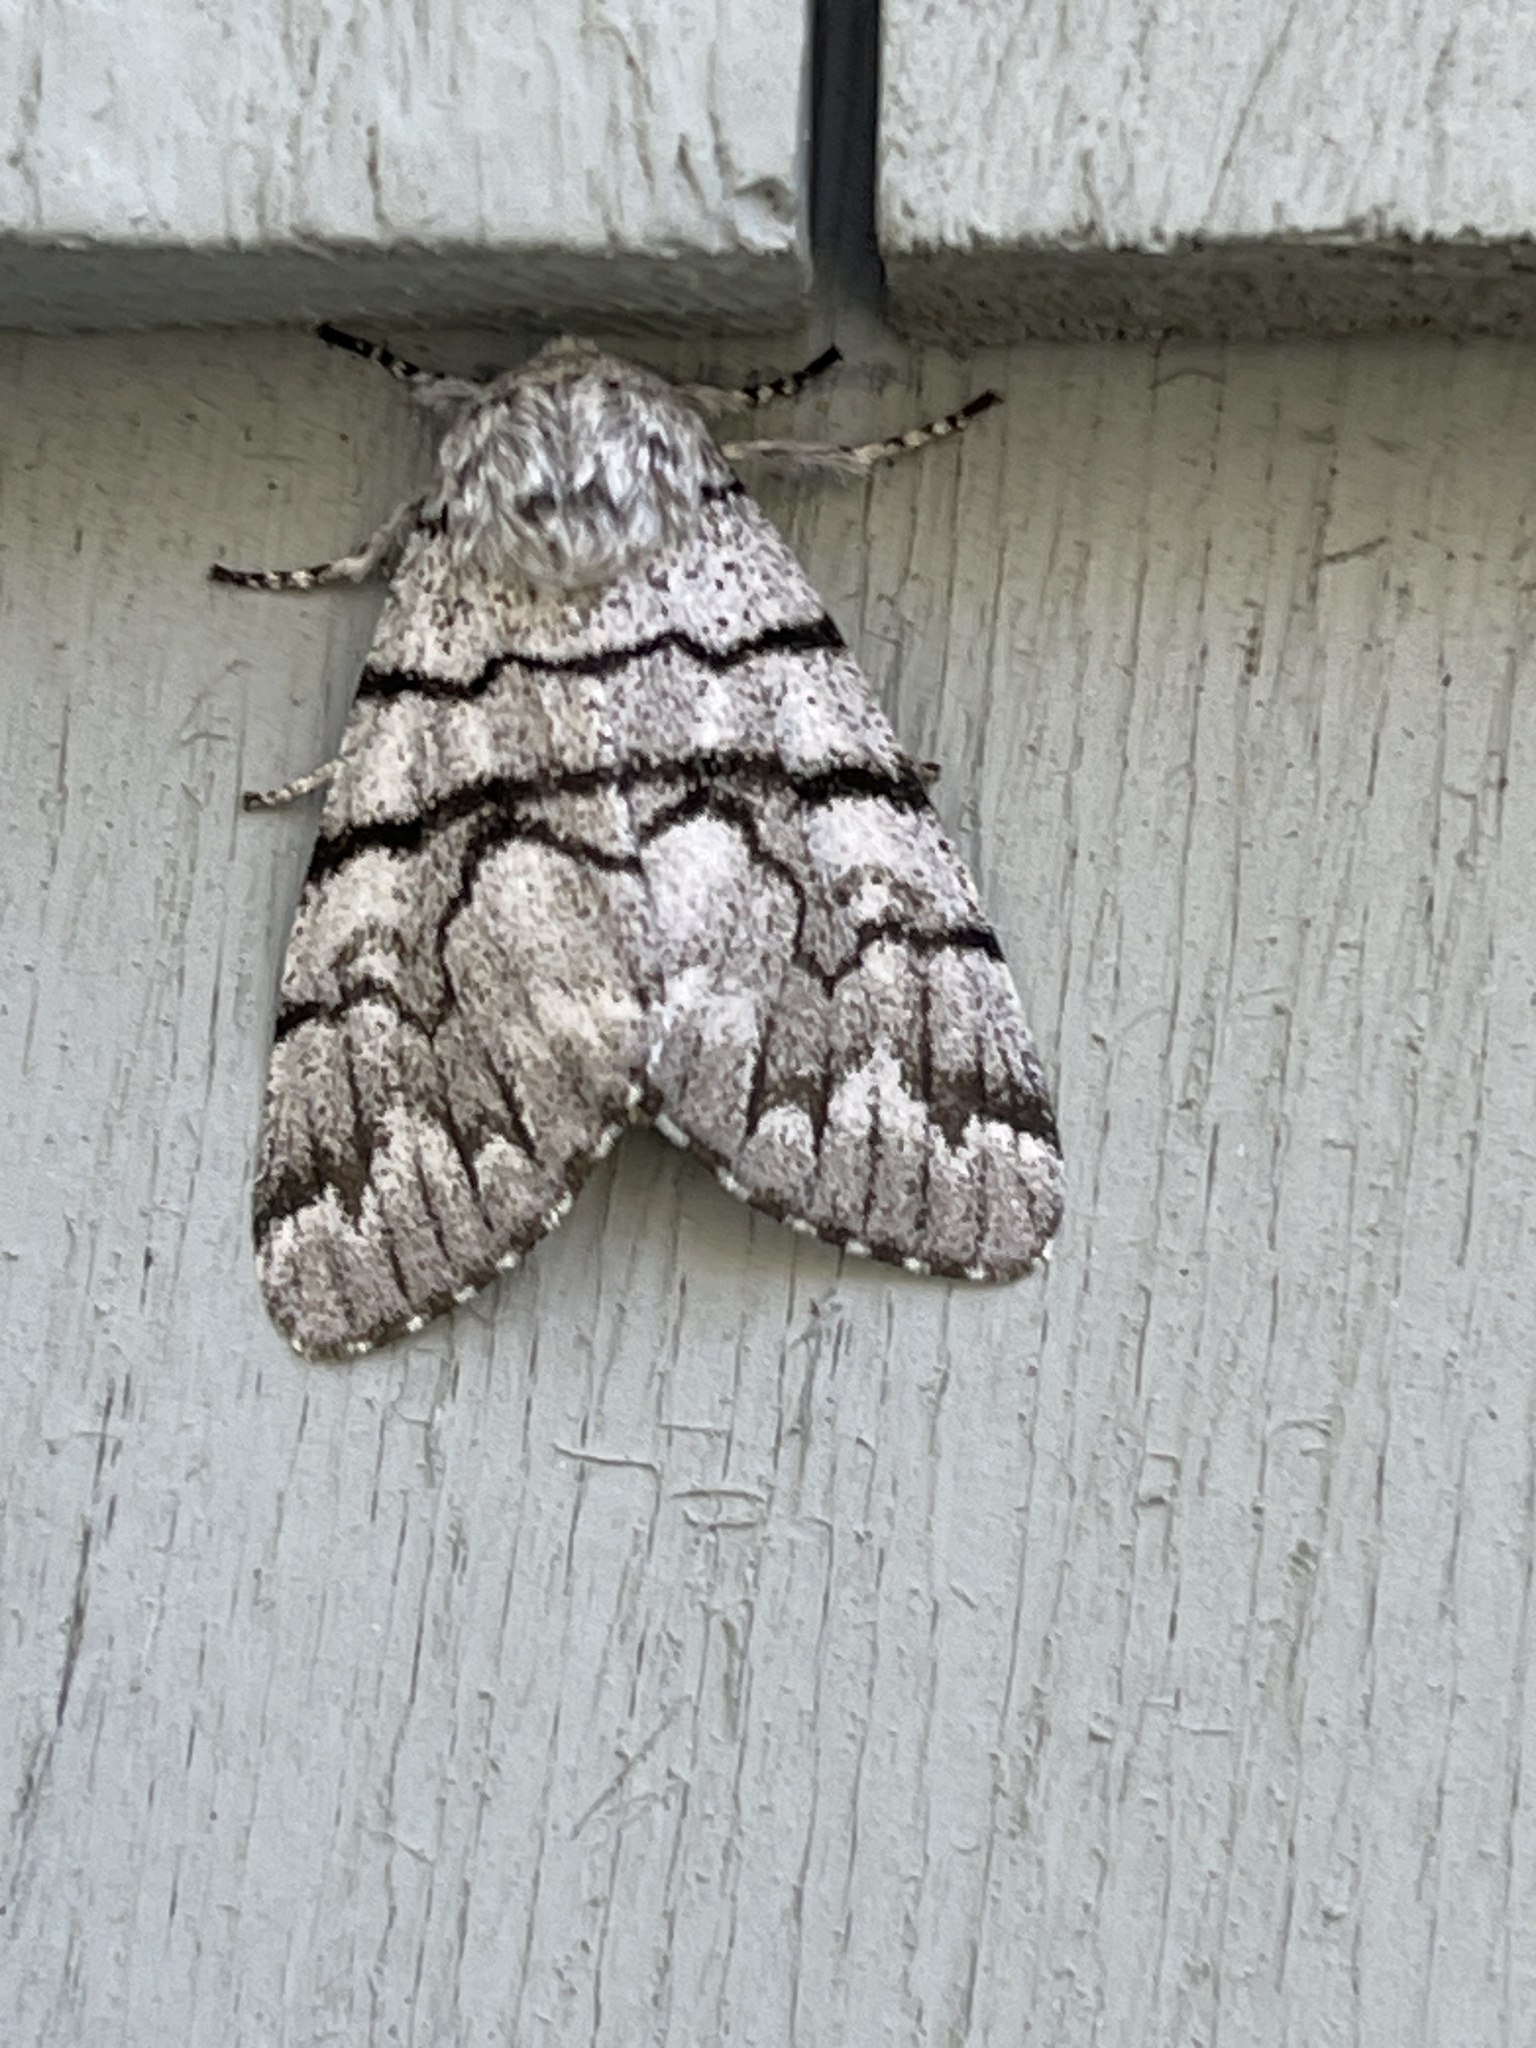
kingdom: Animalia
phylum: Arthropoda
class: Insecta
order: Lepidoptera
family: Noctuidae
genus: Panthea
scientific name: Panthea furcilla
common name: Eastern panthea moth
